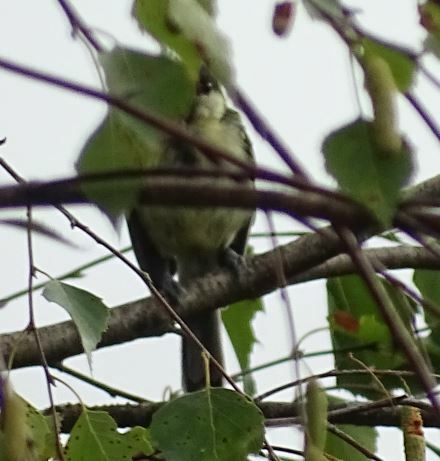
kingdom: Animalia
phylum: Chordata
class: Aves
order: Passeriformes
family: Paridae
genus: Parus
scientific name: Parus major
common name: Great tit
